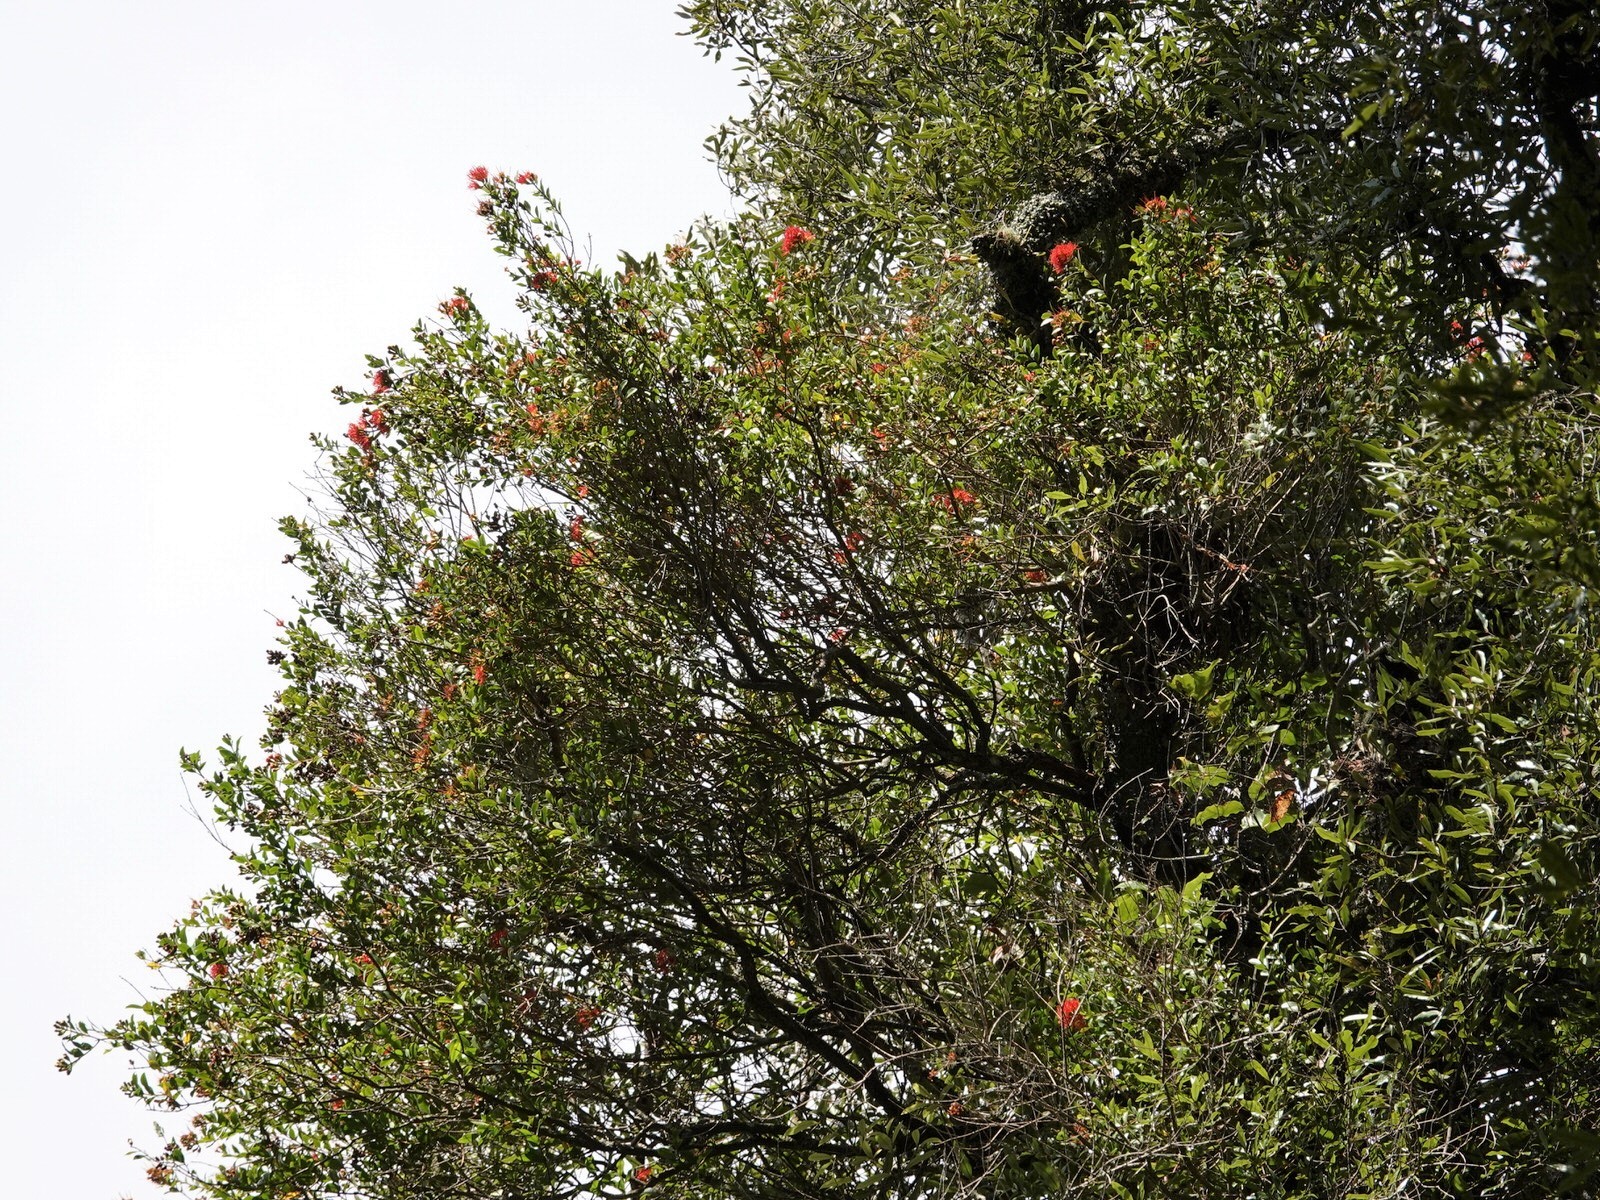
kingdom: Plantae
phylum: Tracheophyta
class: Magnoliopsida
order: Myrtales
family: Myrtaceae
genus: Metrosideros
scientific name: Metrosideros fulgens
